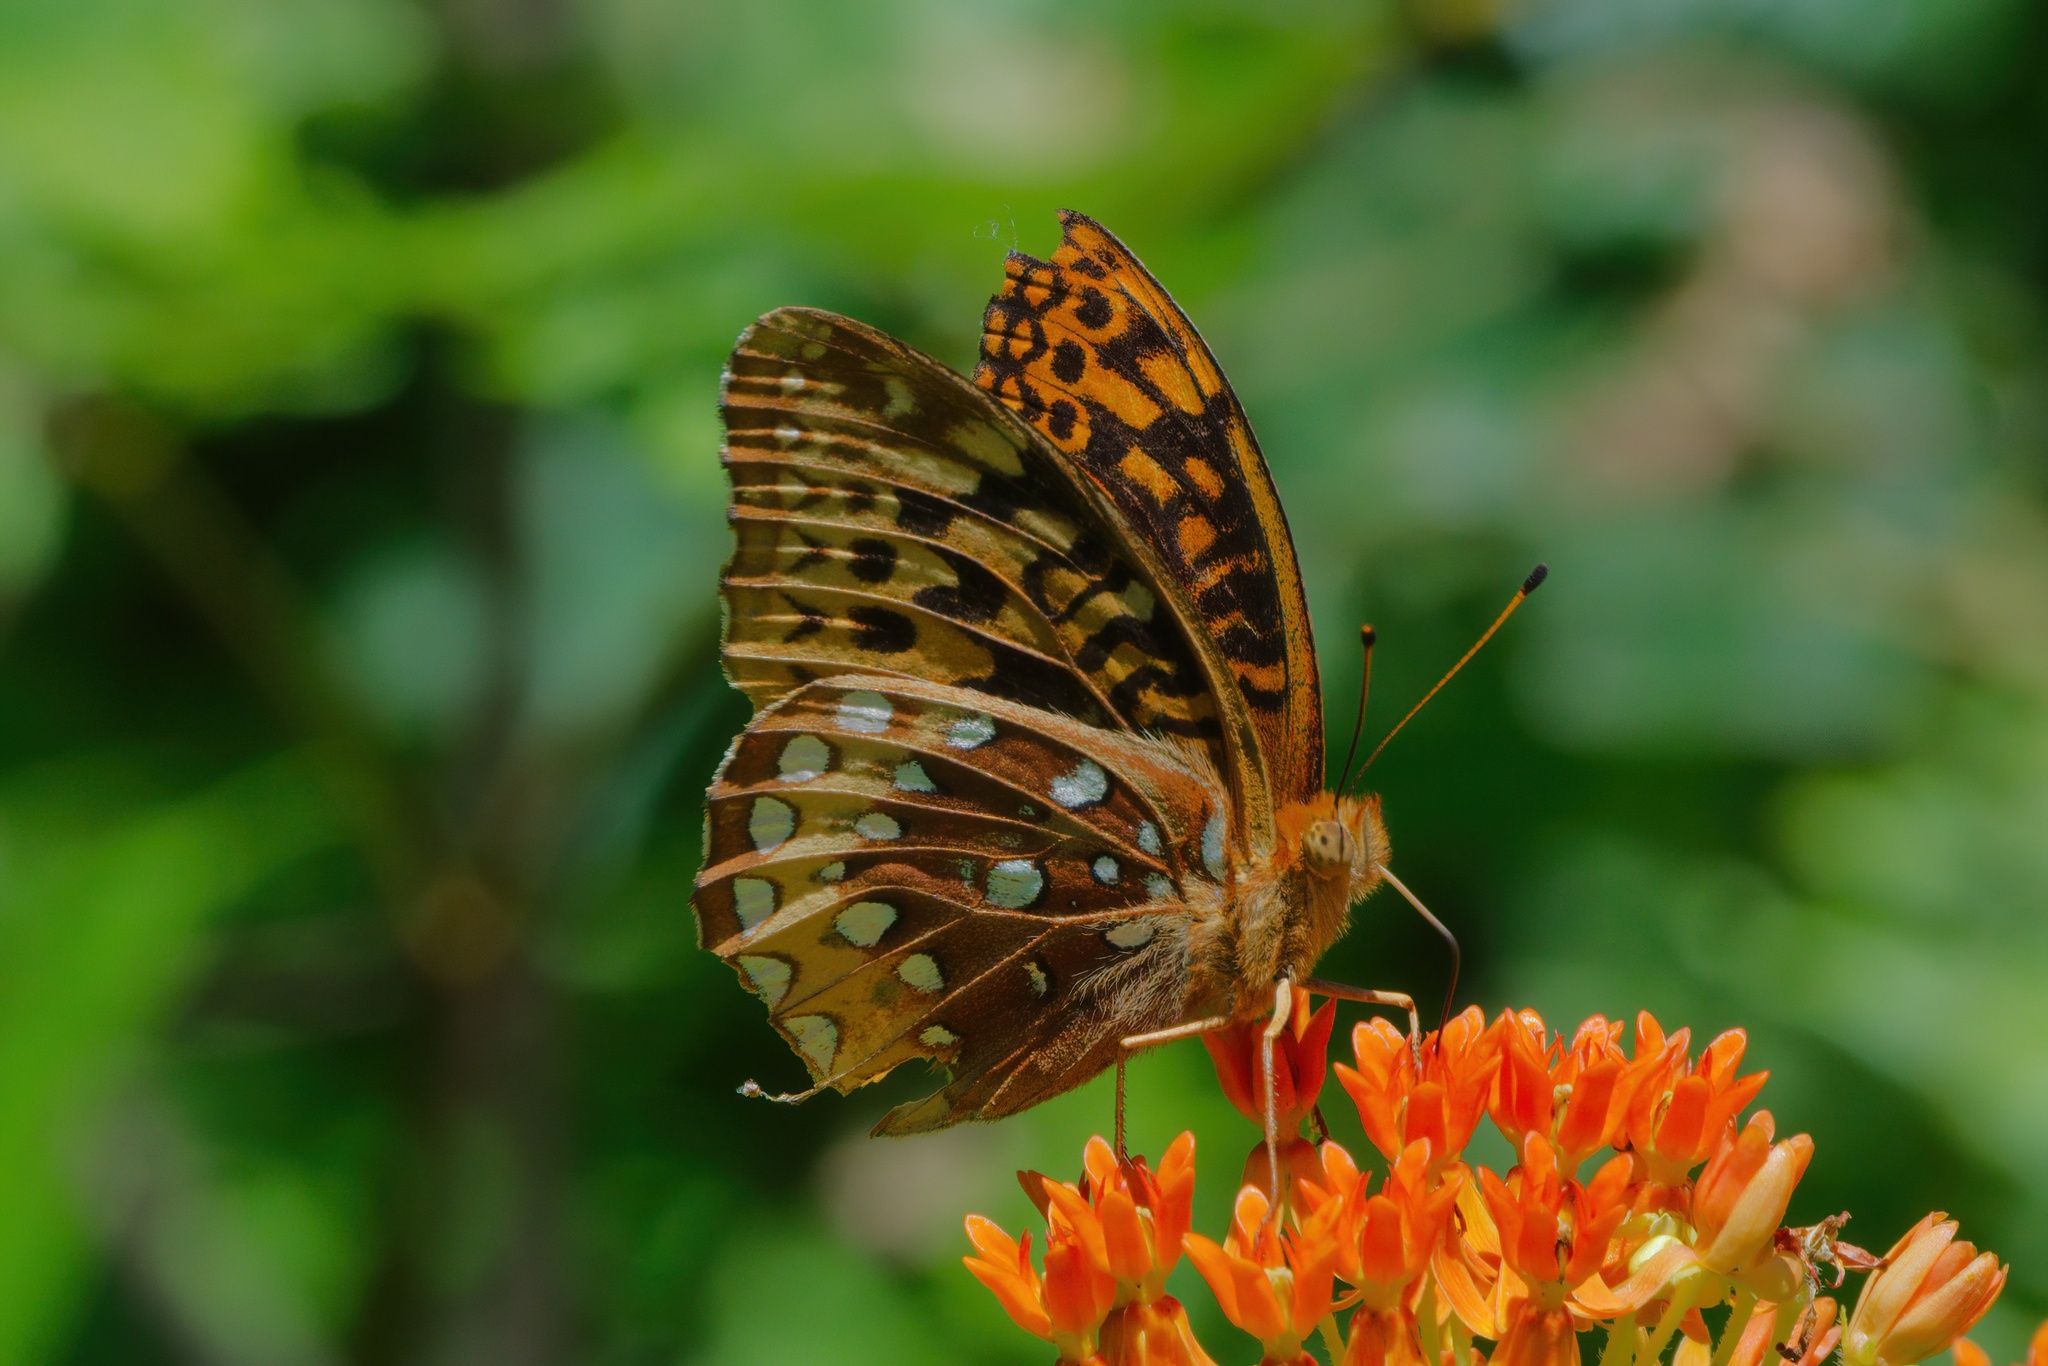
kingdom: Animalia
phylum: Arthropoda
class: Insecta
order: Lepidoptera
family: Nymphalidae
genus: Speyeria
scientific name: Speyeria cybele
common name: Great spangled fritillary
